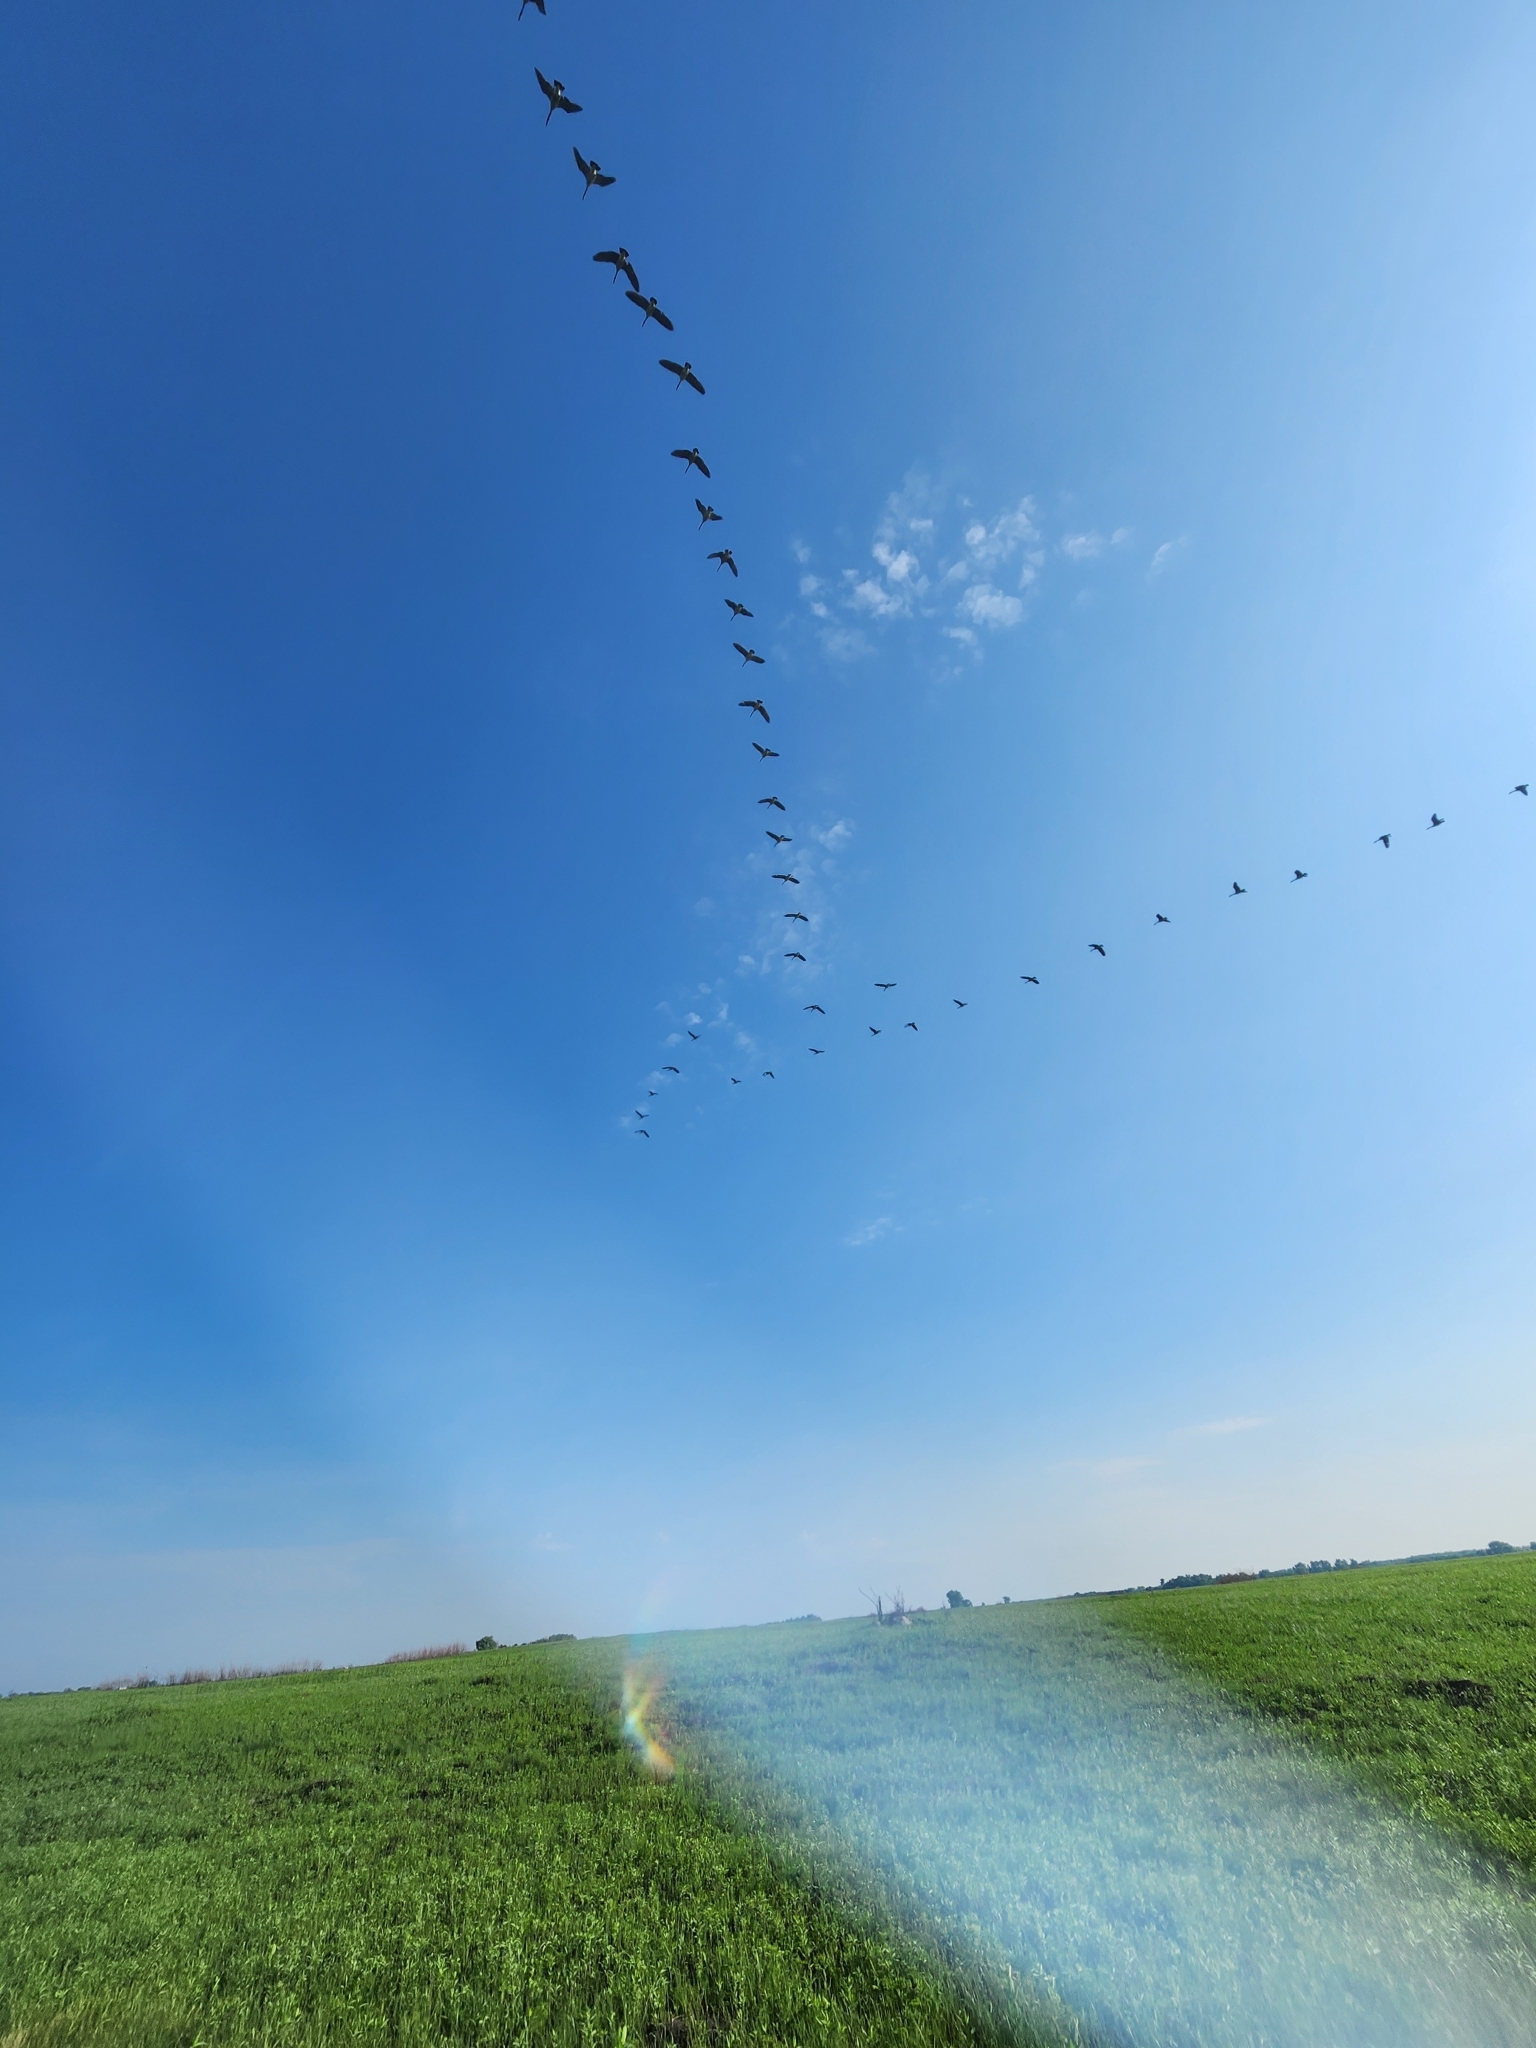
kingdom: Animalia
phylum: Chordata
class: Aves
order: Anseriformes
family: Anatidae
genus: Branta
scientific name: Branta canadensis
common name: Canada goose
